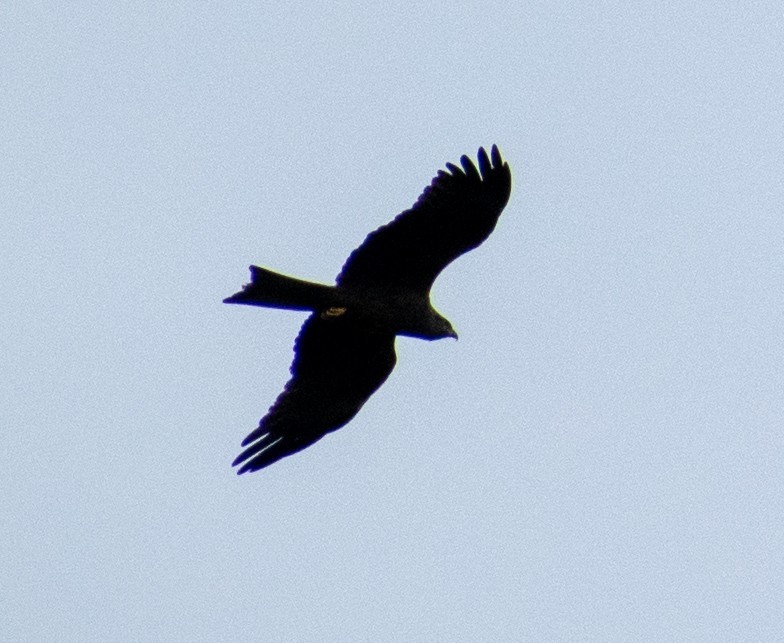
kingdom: Animalia
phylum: Chordata
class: Aves
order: Accipitriformes
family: Accipitridae
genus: Milvus
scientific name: Milvus migrans
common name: Black kite
